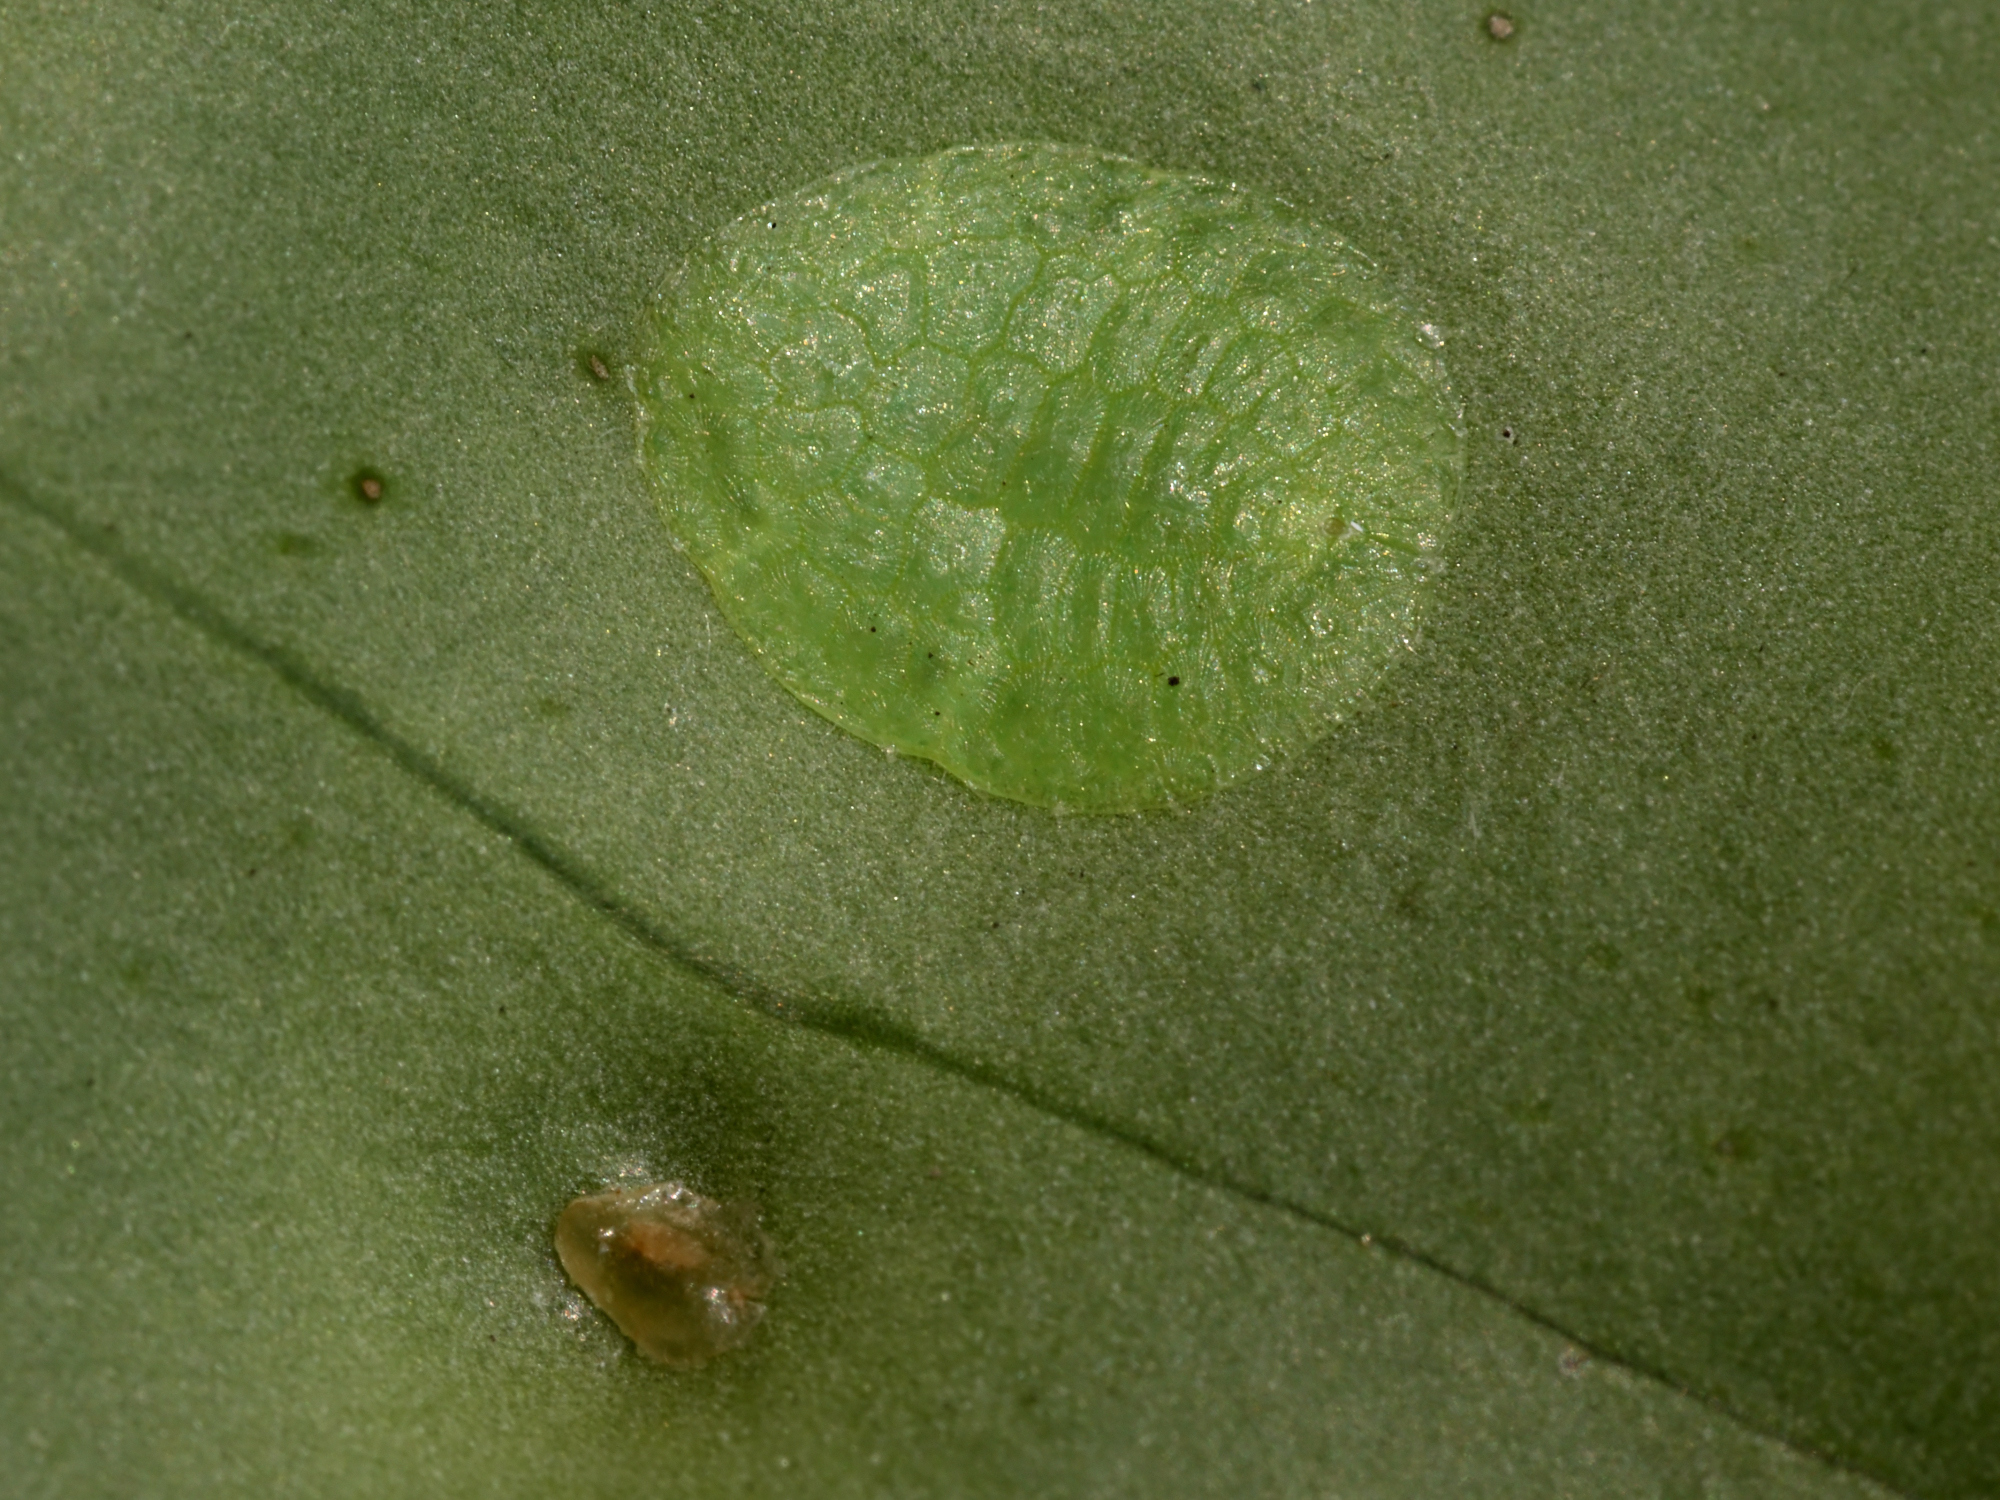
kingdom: Animalia
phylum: Arthropoda
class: Insecta
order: Hemiptera
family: Coccidae
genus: Ctenochiton
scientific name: Ctenochiton paraviridis
